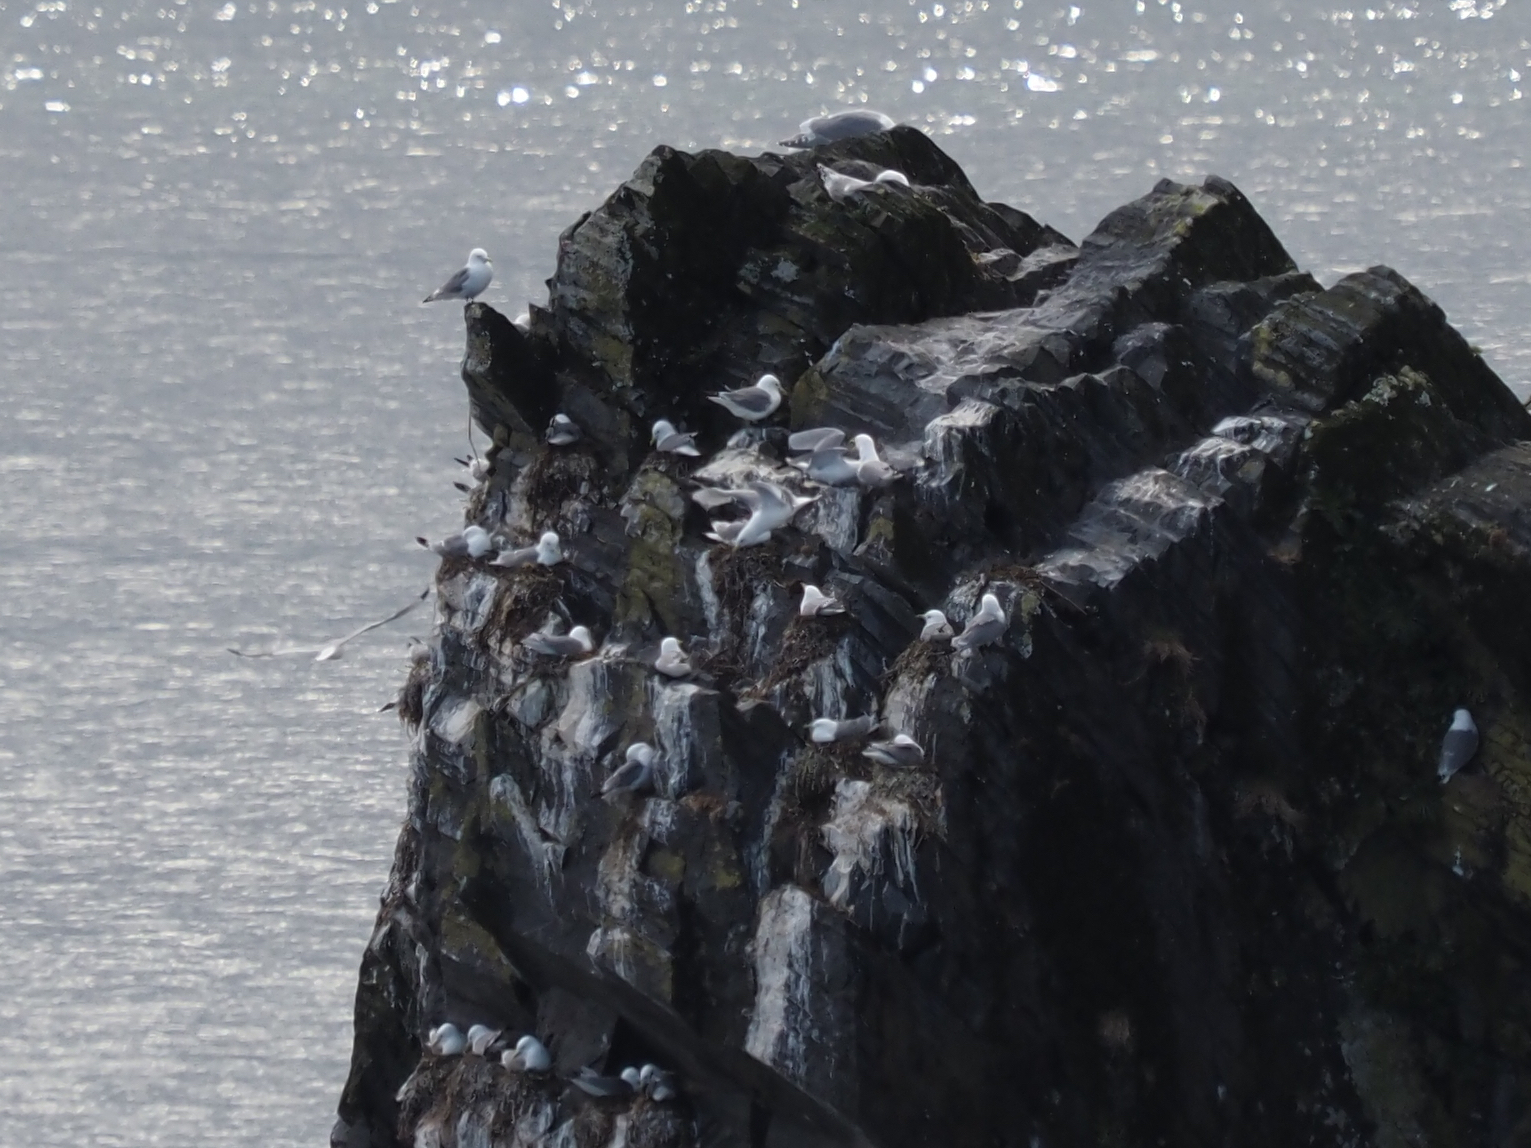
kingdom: Animalia
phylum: Chordata
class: Aves
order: Charadriiformes
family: Laridae
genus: Rissa
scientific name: Rissa tridactyla
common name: Black-legged kittiwake
